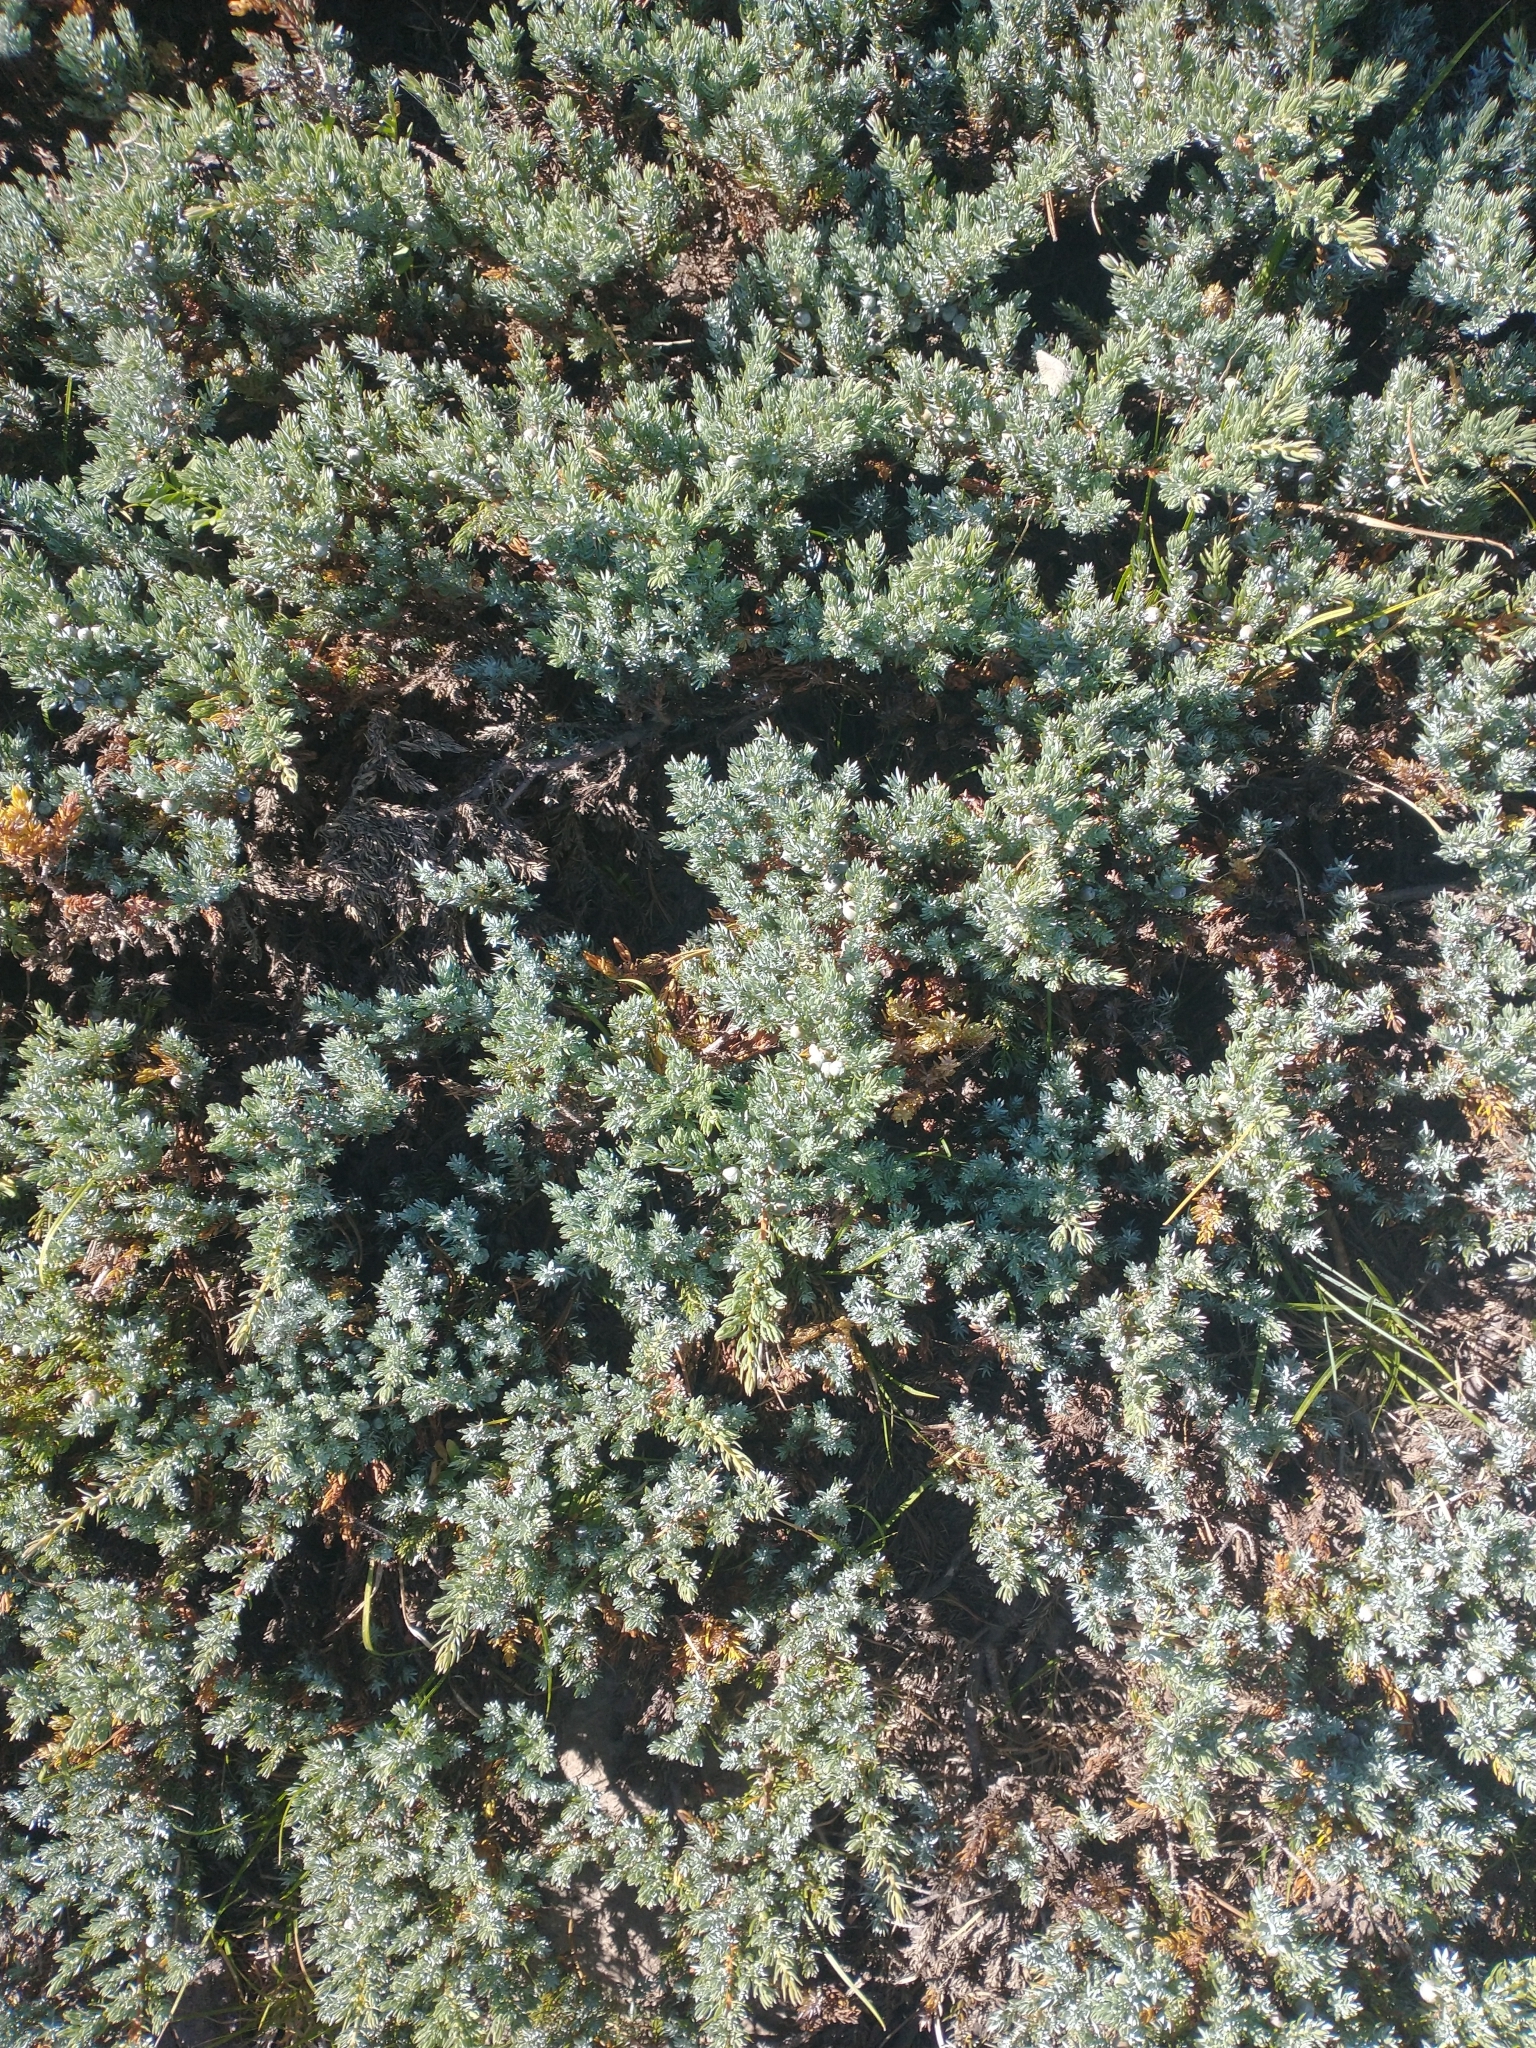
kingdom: Plantae
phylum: Tracheophyta
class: Pinopsida
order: Pinales
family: Cupressaceae
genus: Juniperus
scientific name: Juniperus communis
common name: Common juniper
